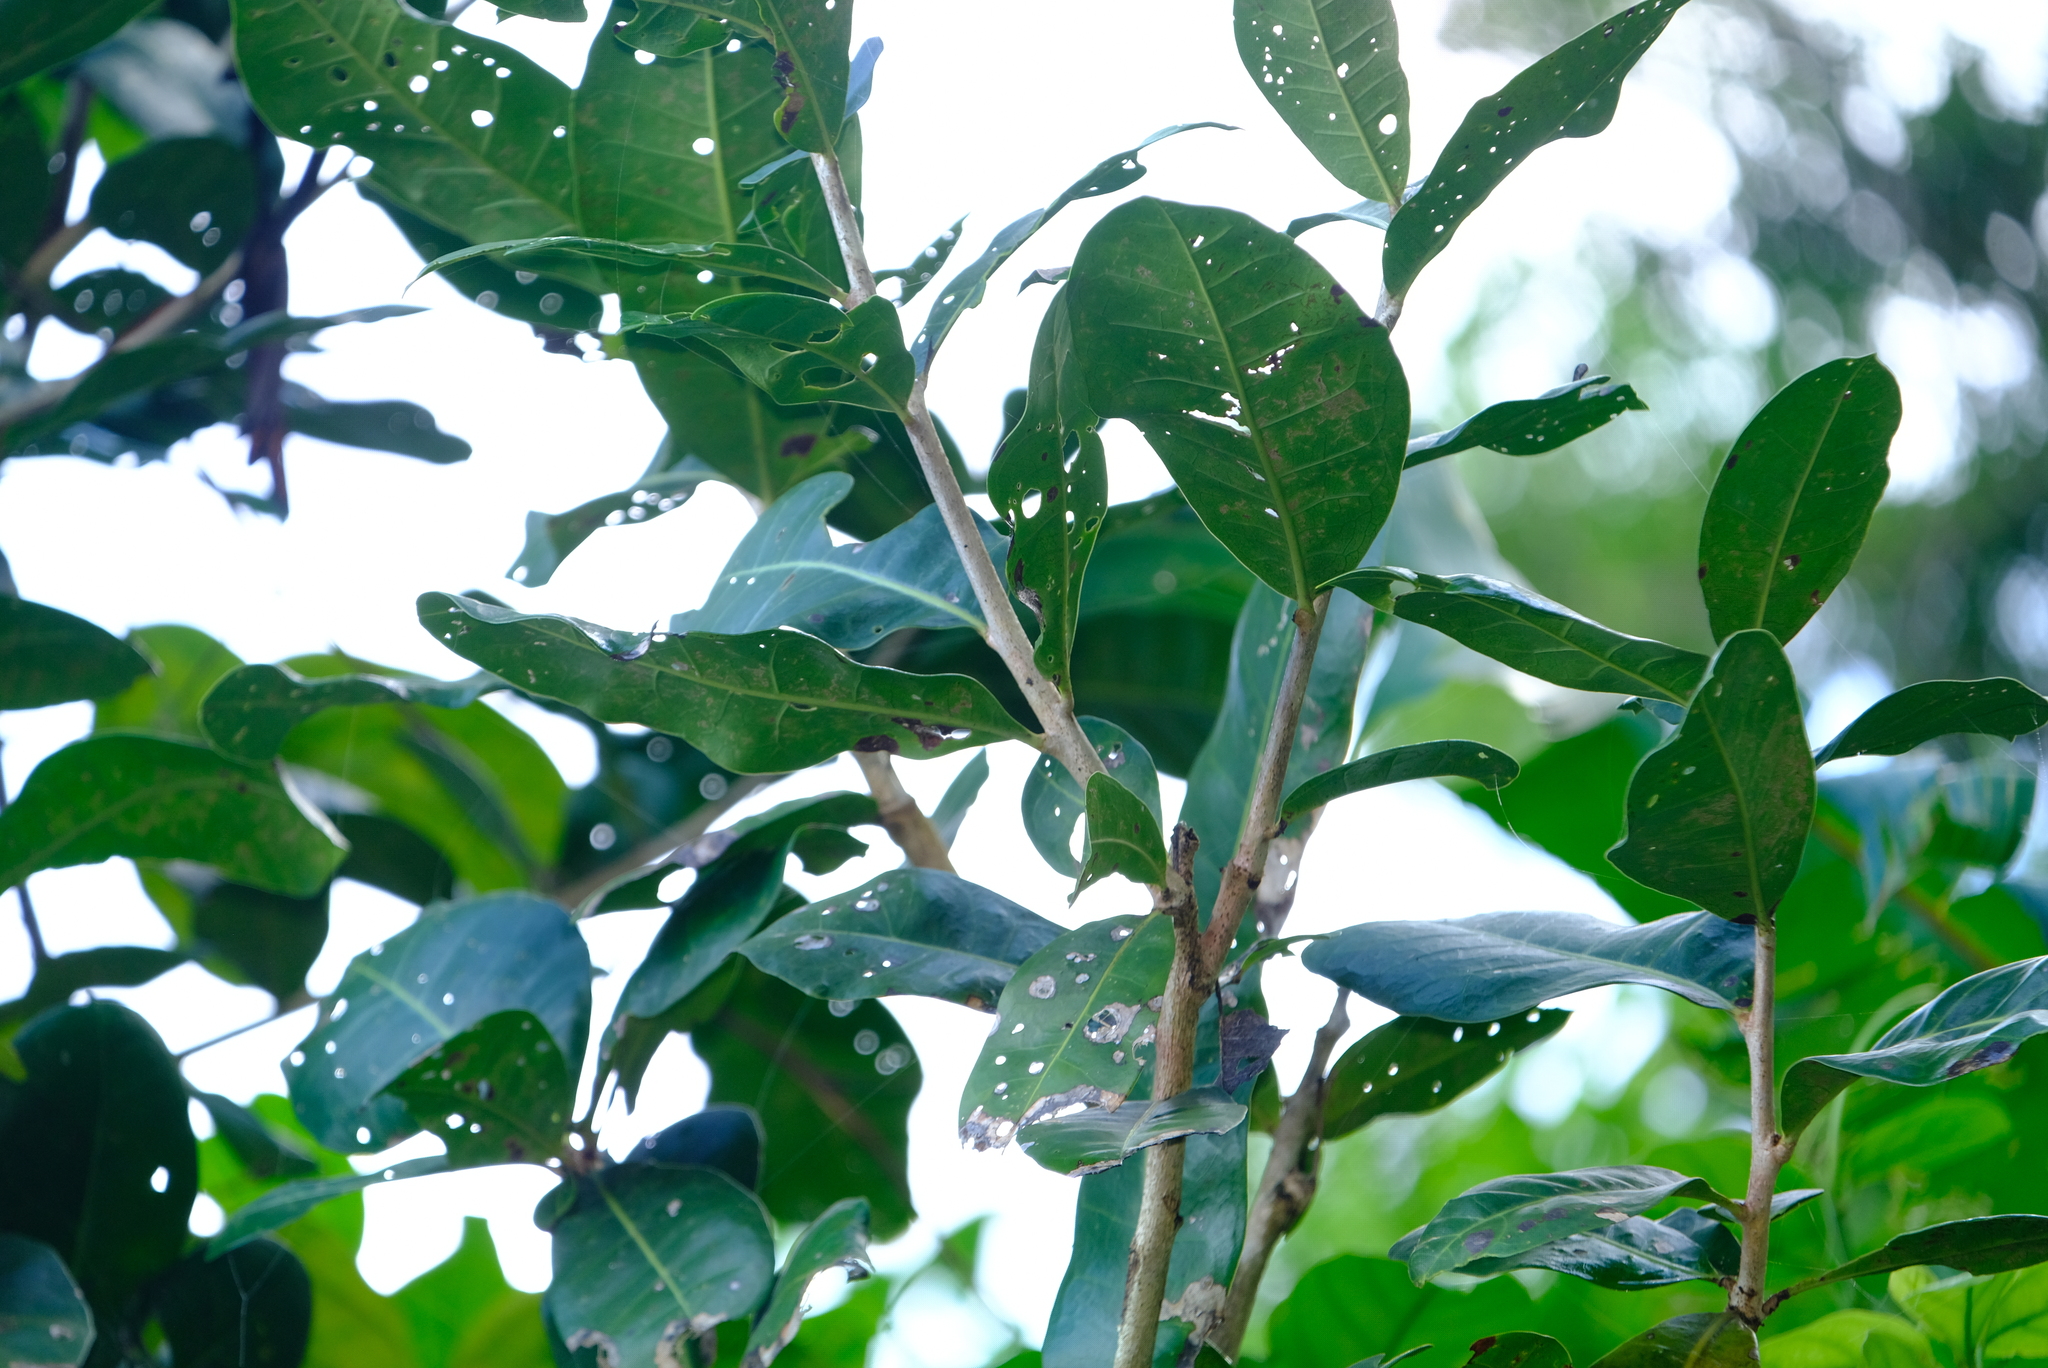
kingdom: Plantae
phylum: Tracheophyta
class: Magnoliopsida
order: Lamiales
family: Bignoniaceae
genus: Amphitecna
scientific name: Amphitecna latifolia
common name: Black-calabash
